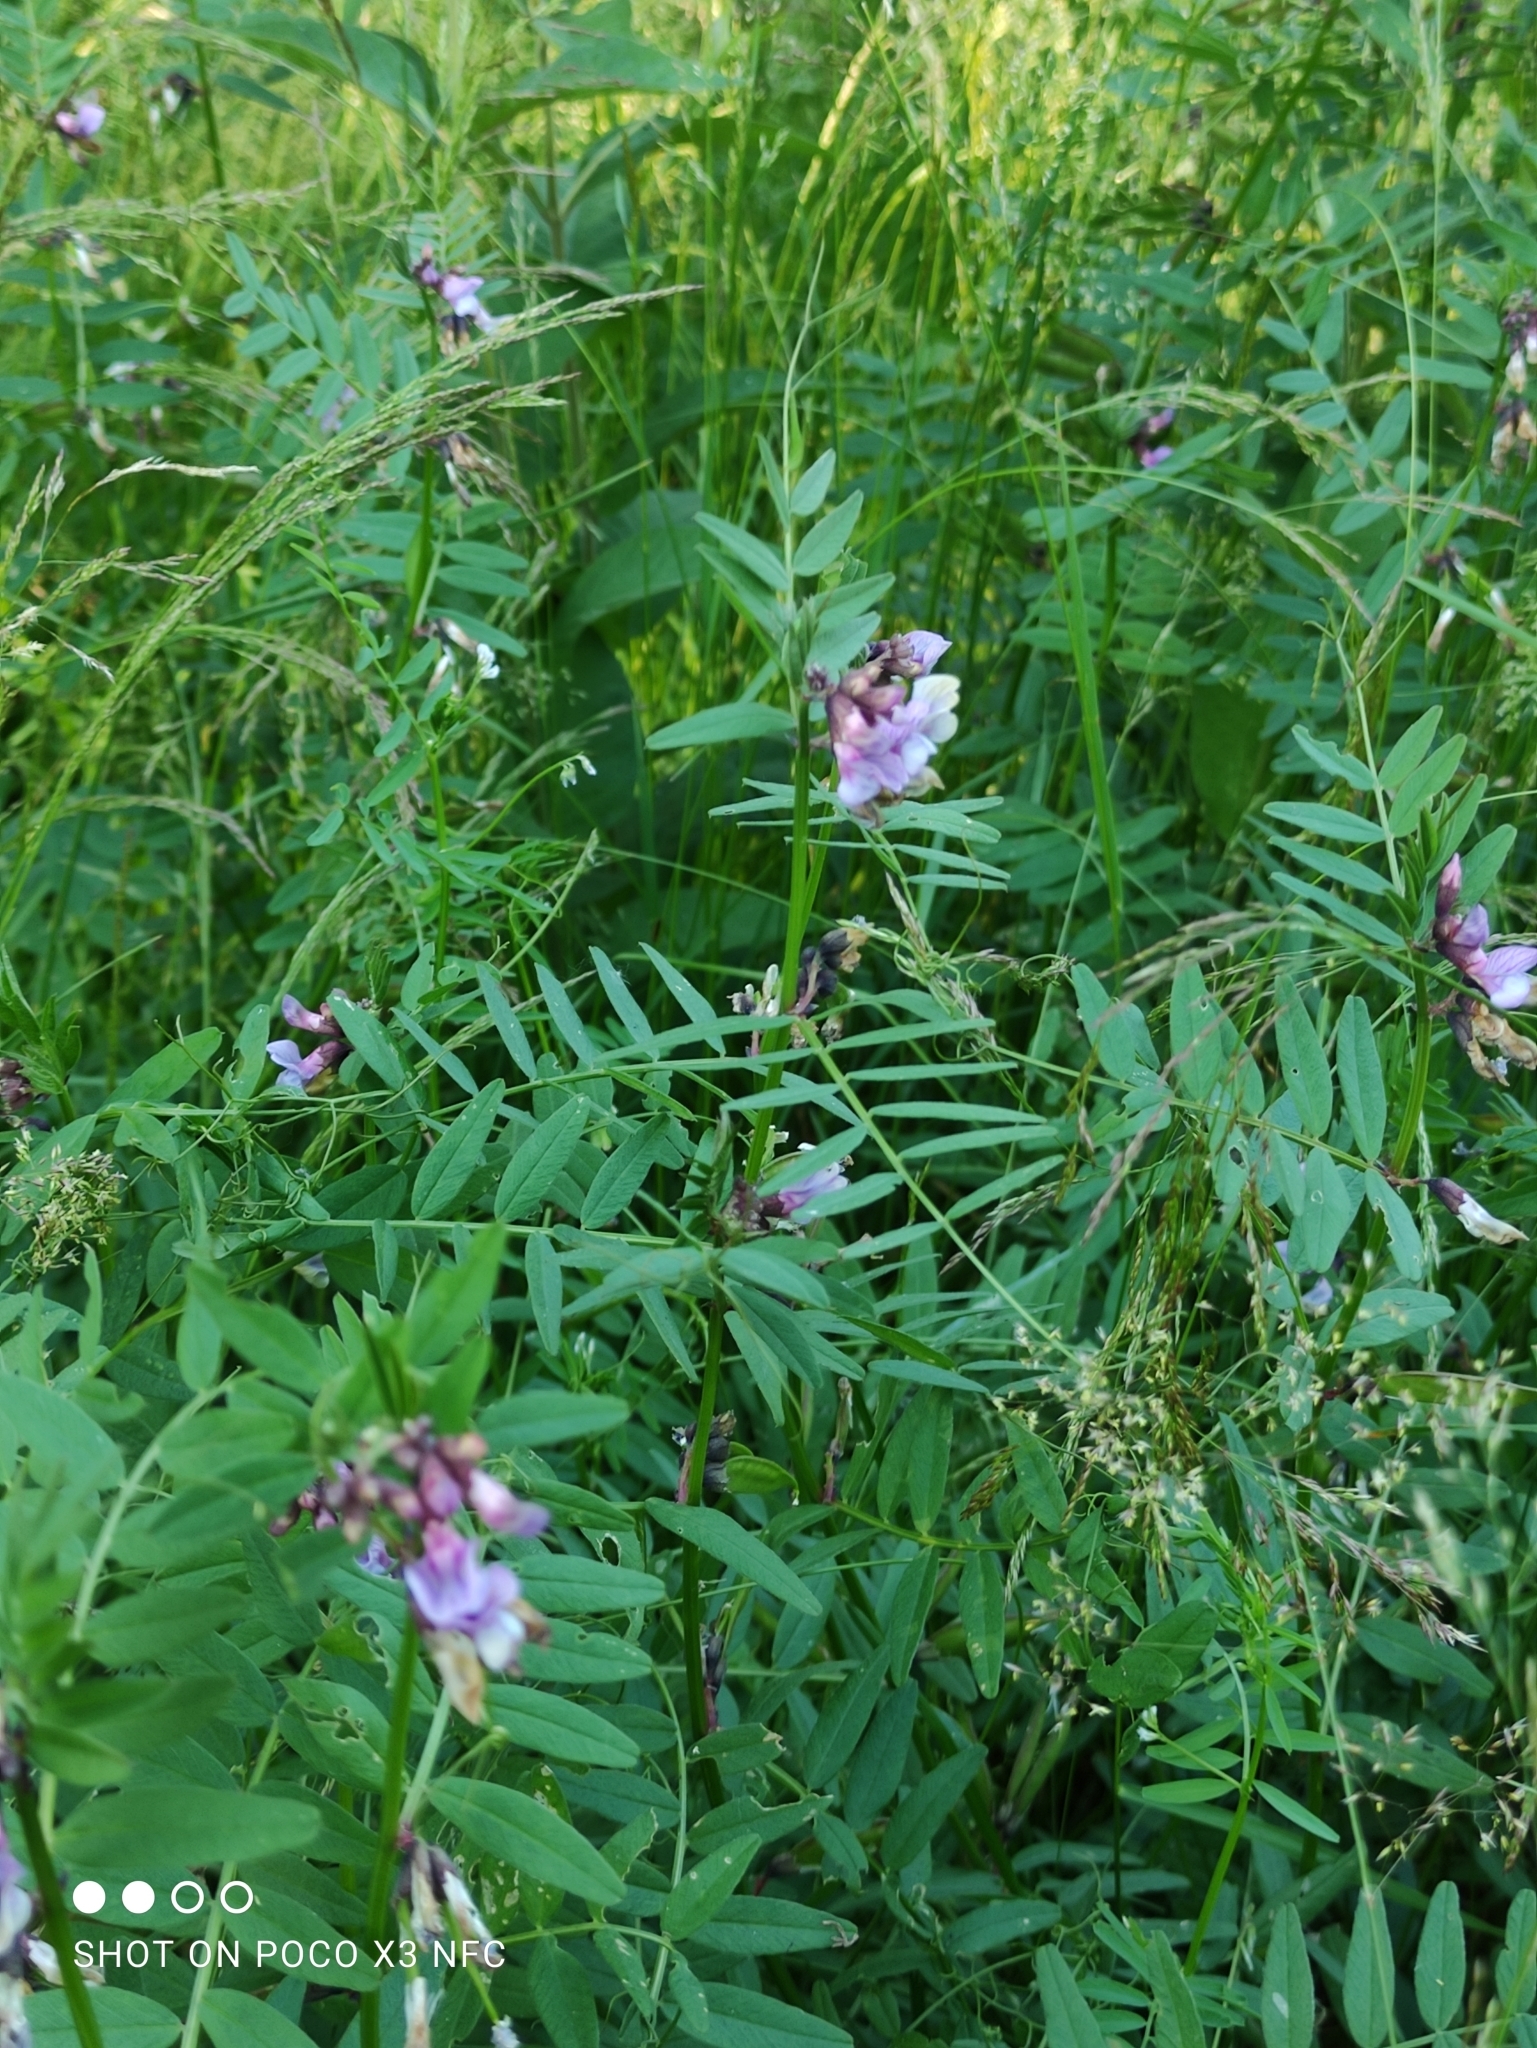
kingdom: Plantae
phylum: Tracheophyta
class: Magnoliopsida
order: Fabales
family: Fabaceae
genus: Vicia
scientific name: Vicia sepium
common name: Bush vetch
